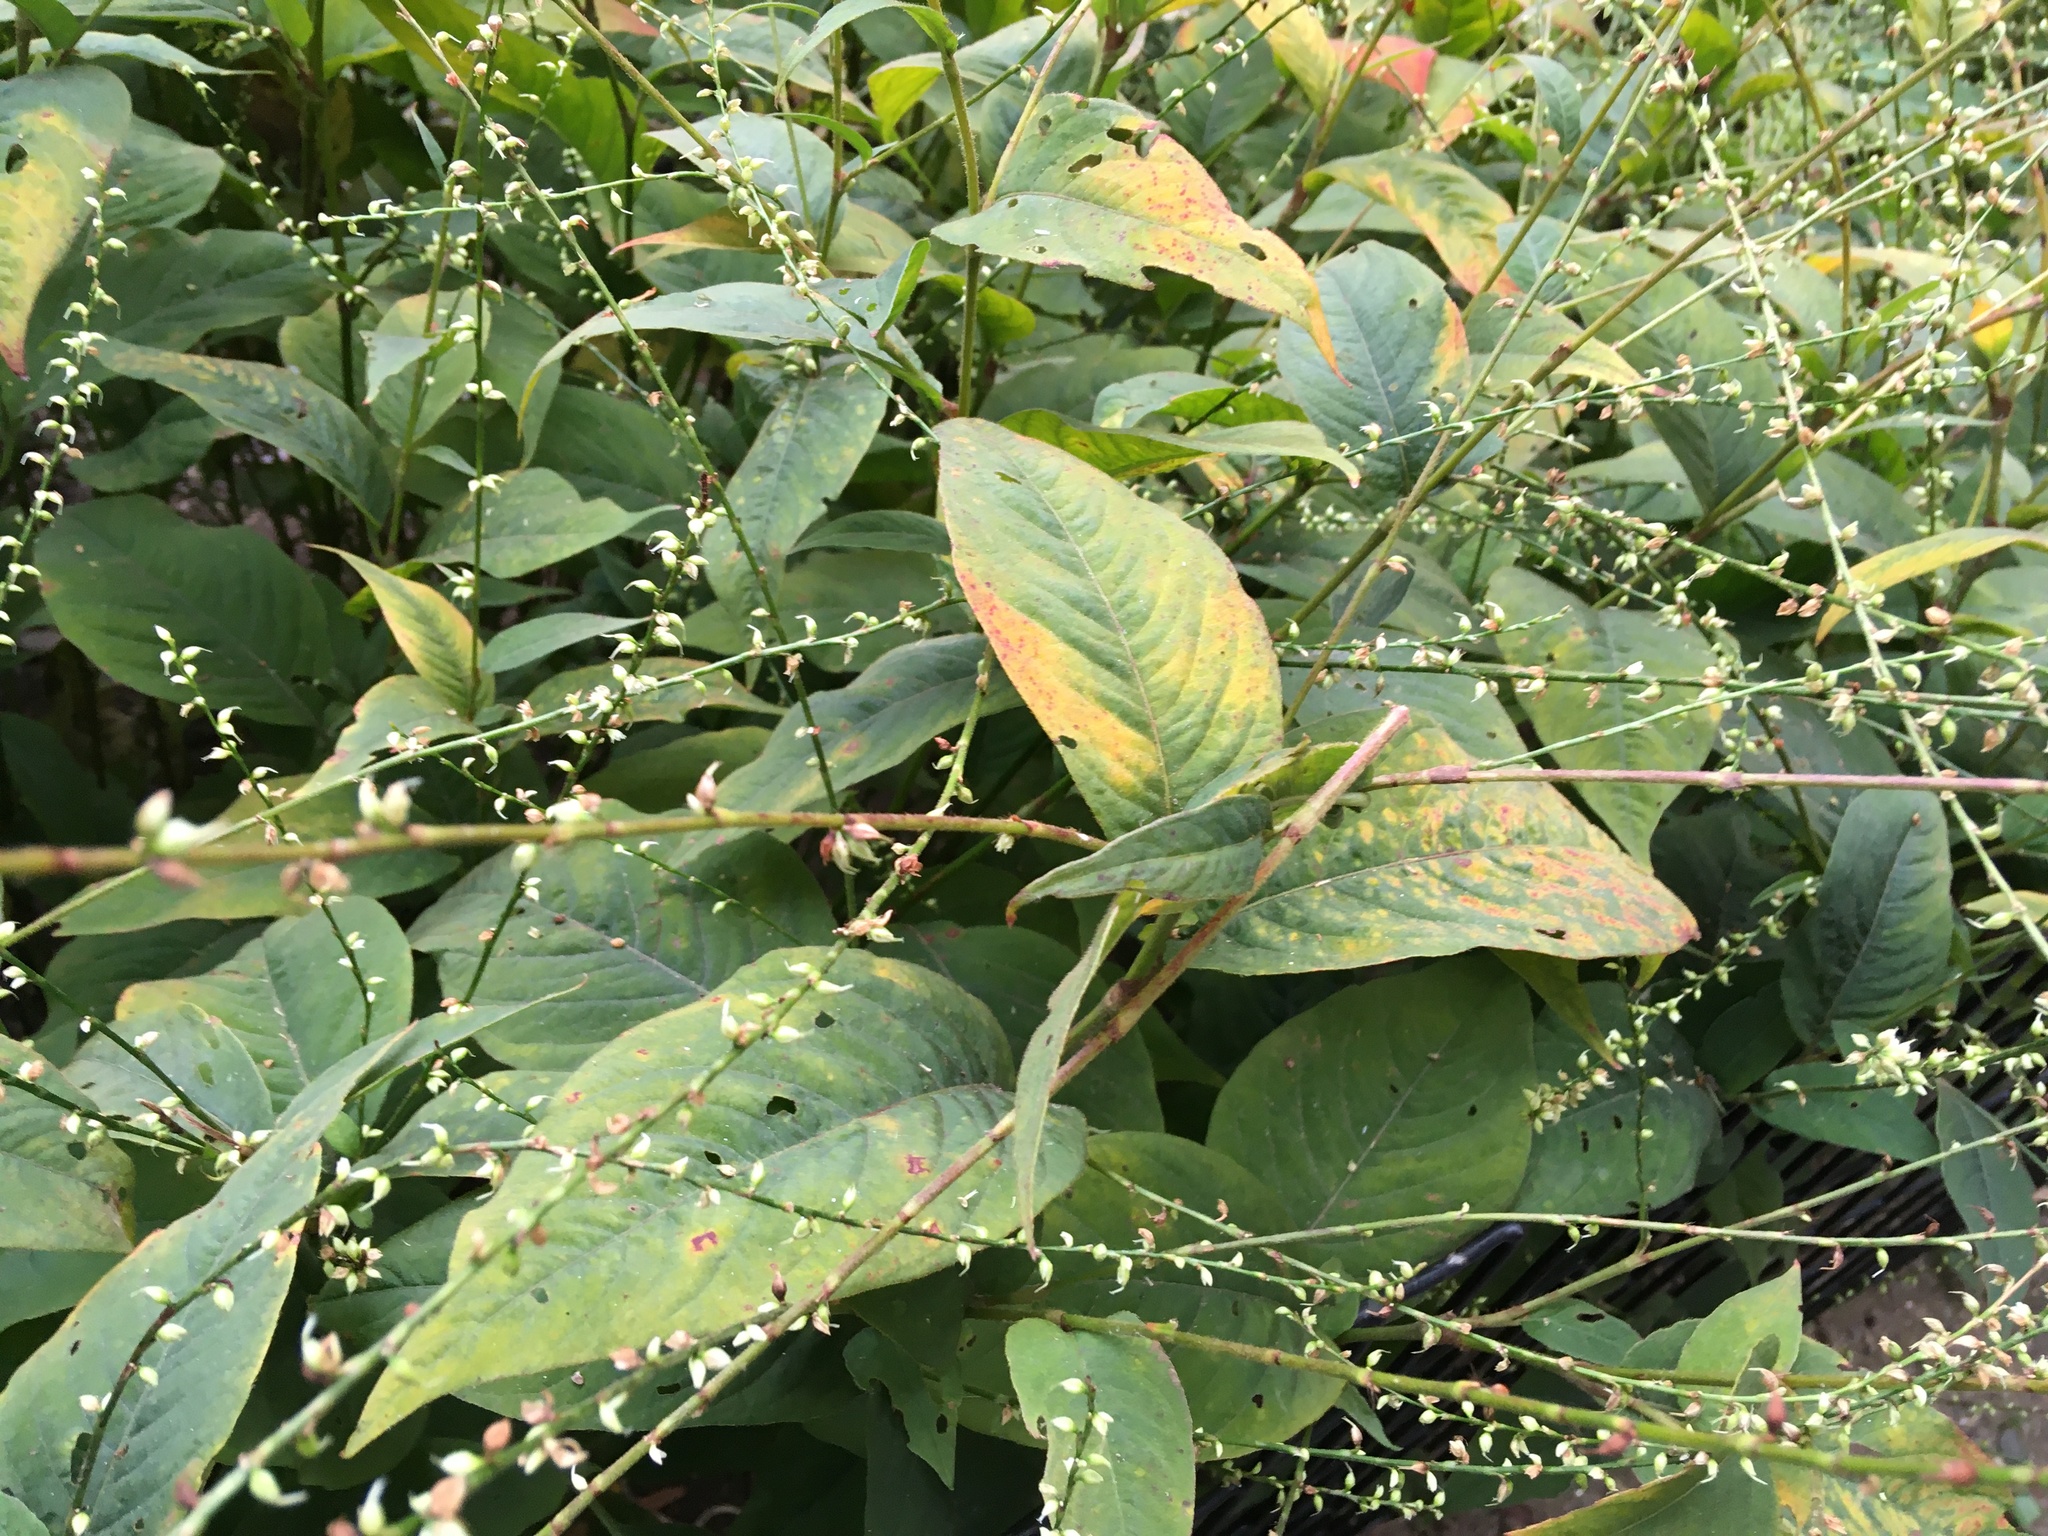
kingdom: Plantae
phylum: Tracheophyta
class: Magnoliopsida
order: Caryophyllales
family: Polygonaceae
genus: Persicaria
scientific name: Persicaria virginiana
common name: Jumpseed
